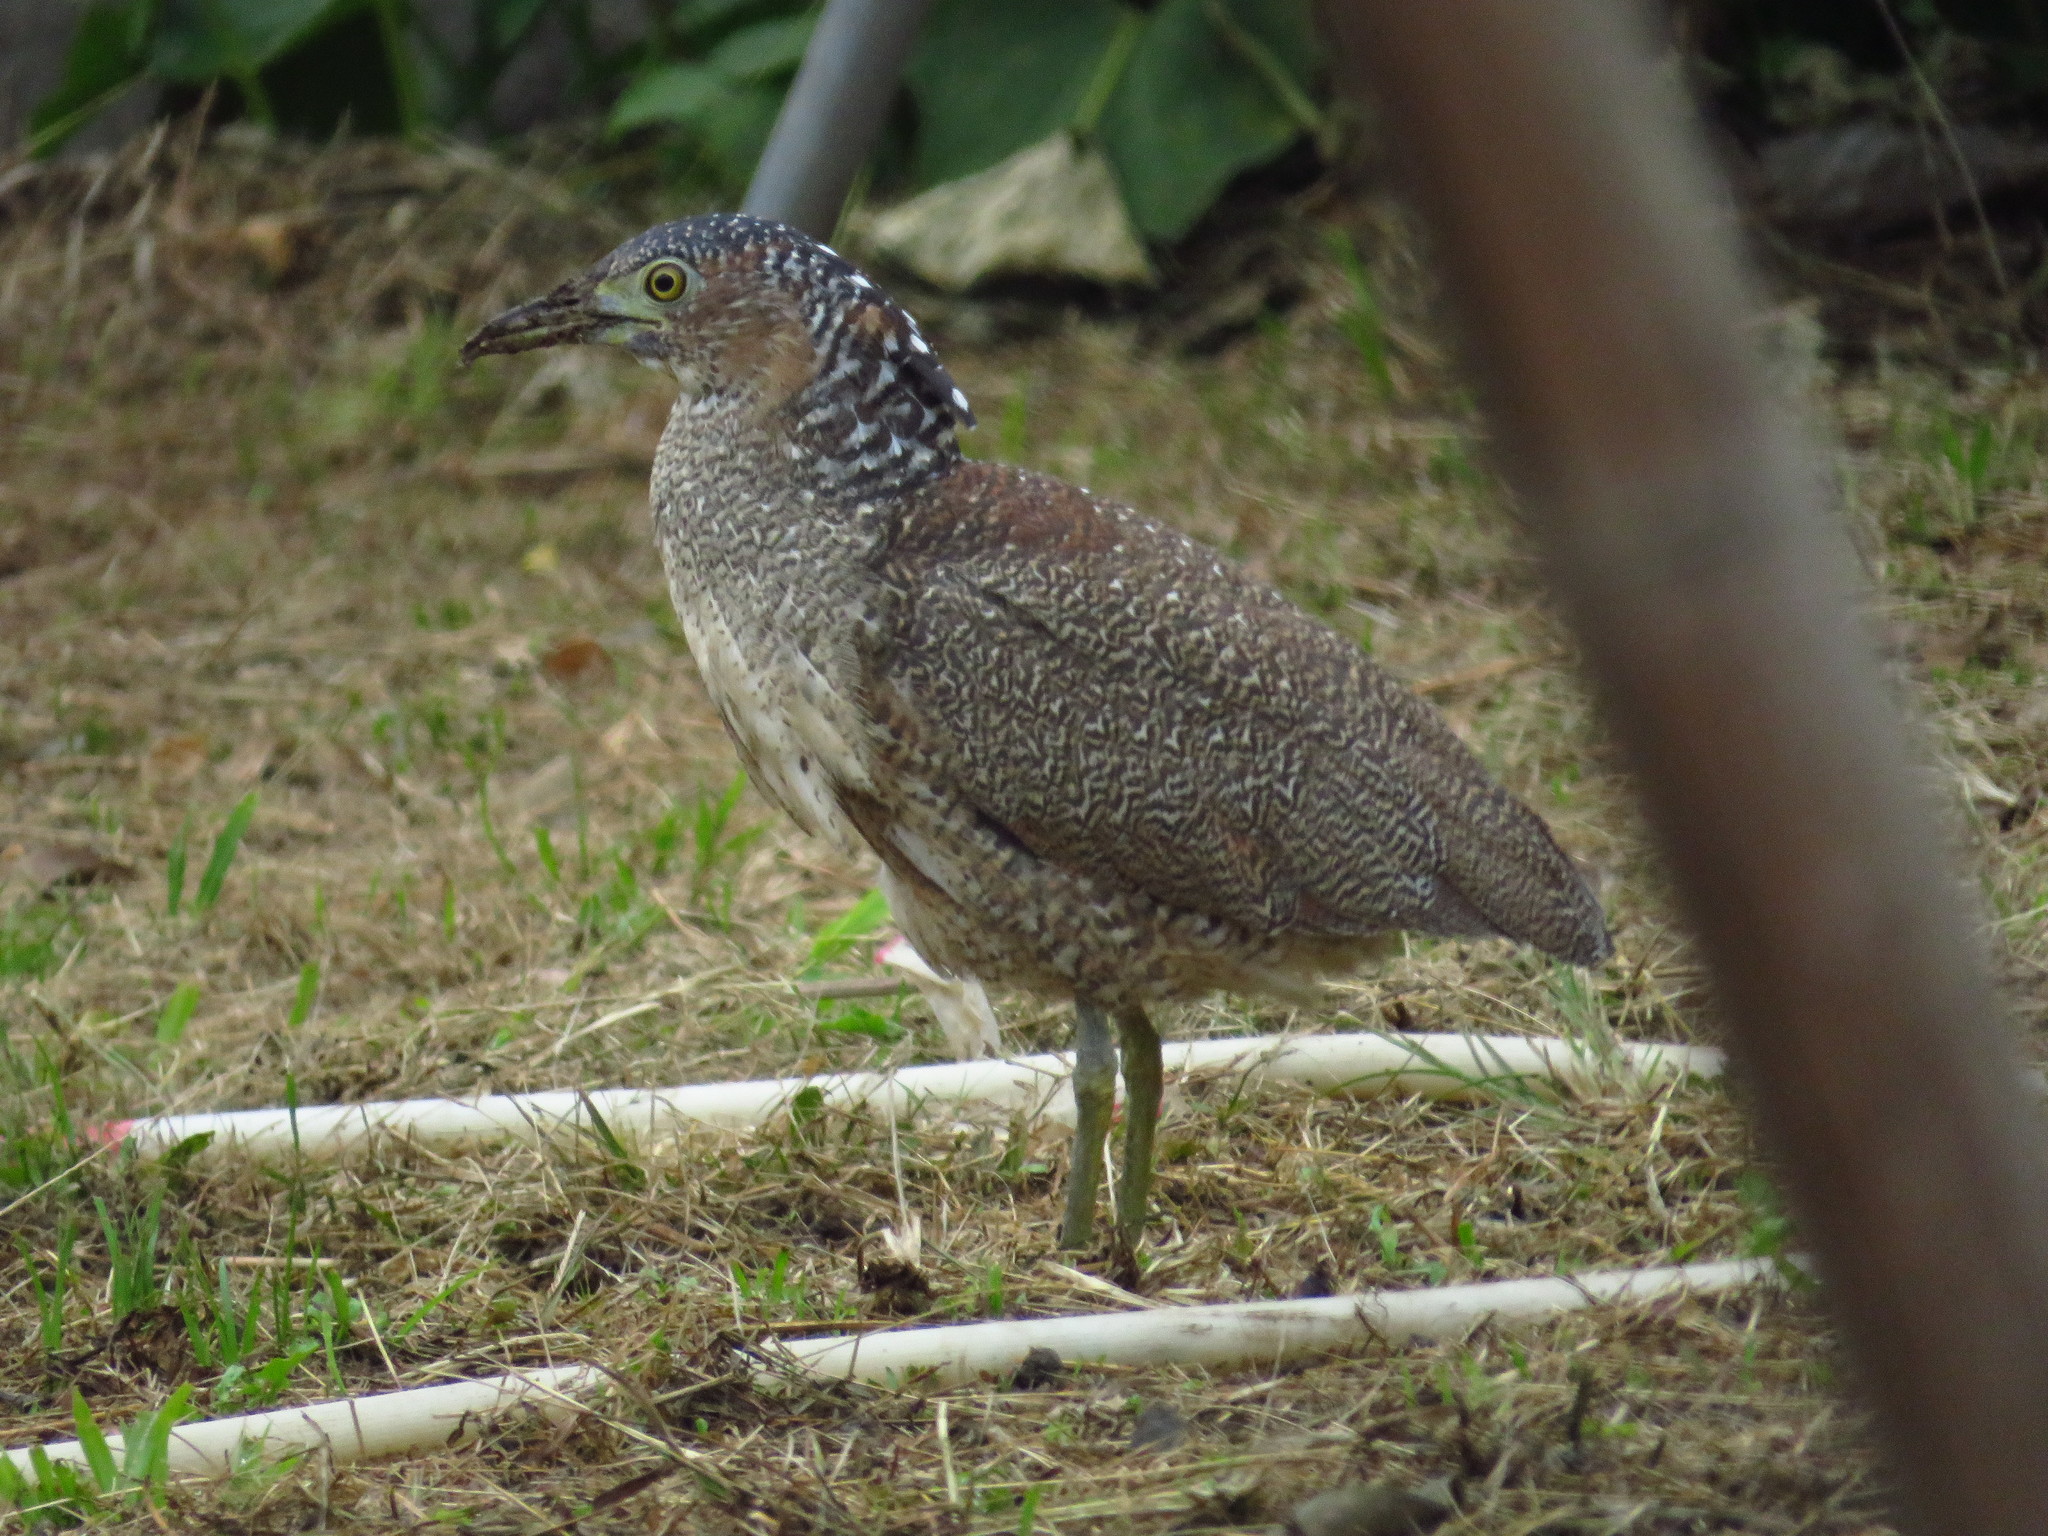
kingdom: Animalia
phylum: Chordata
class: Aves
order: Pelecaniformes
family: Ardeidae
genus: Gorsachius
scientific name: Gorsachius melanolophus
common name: Malayan night heron
